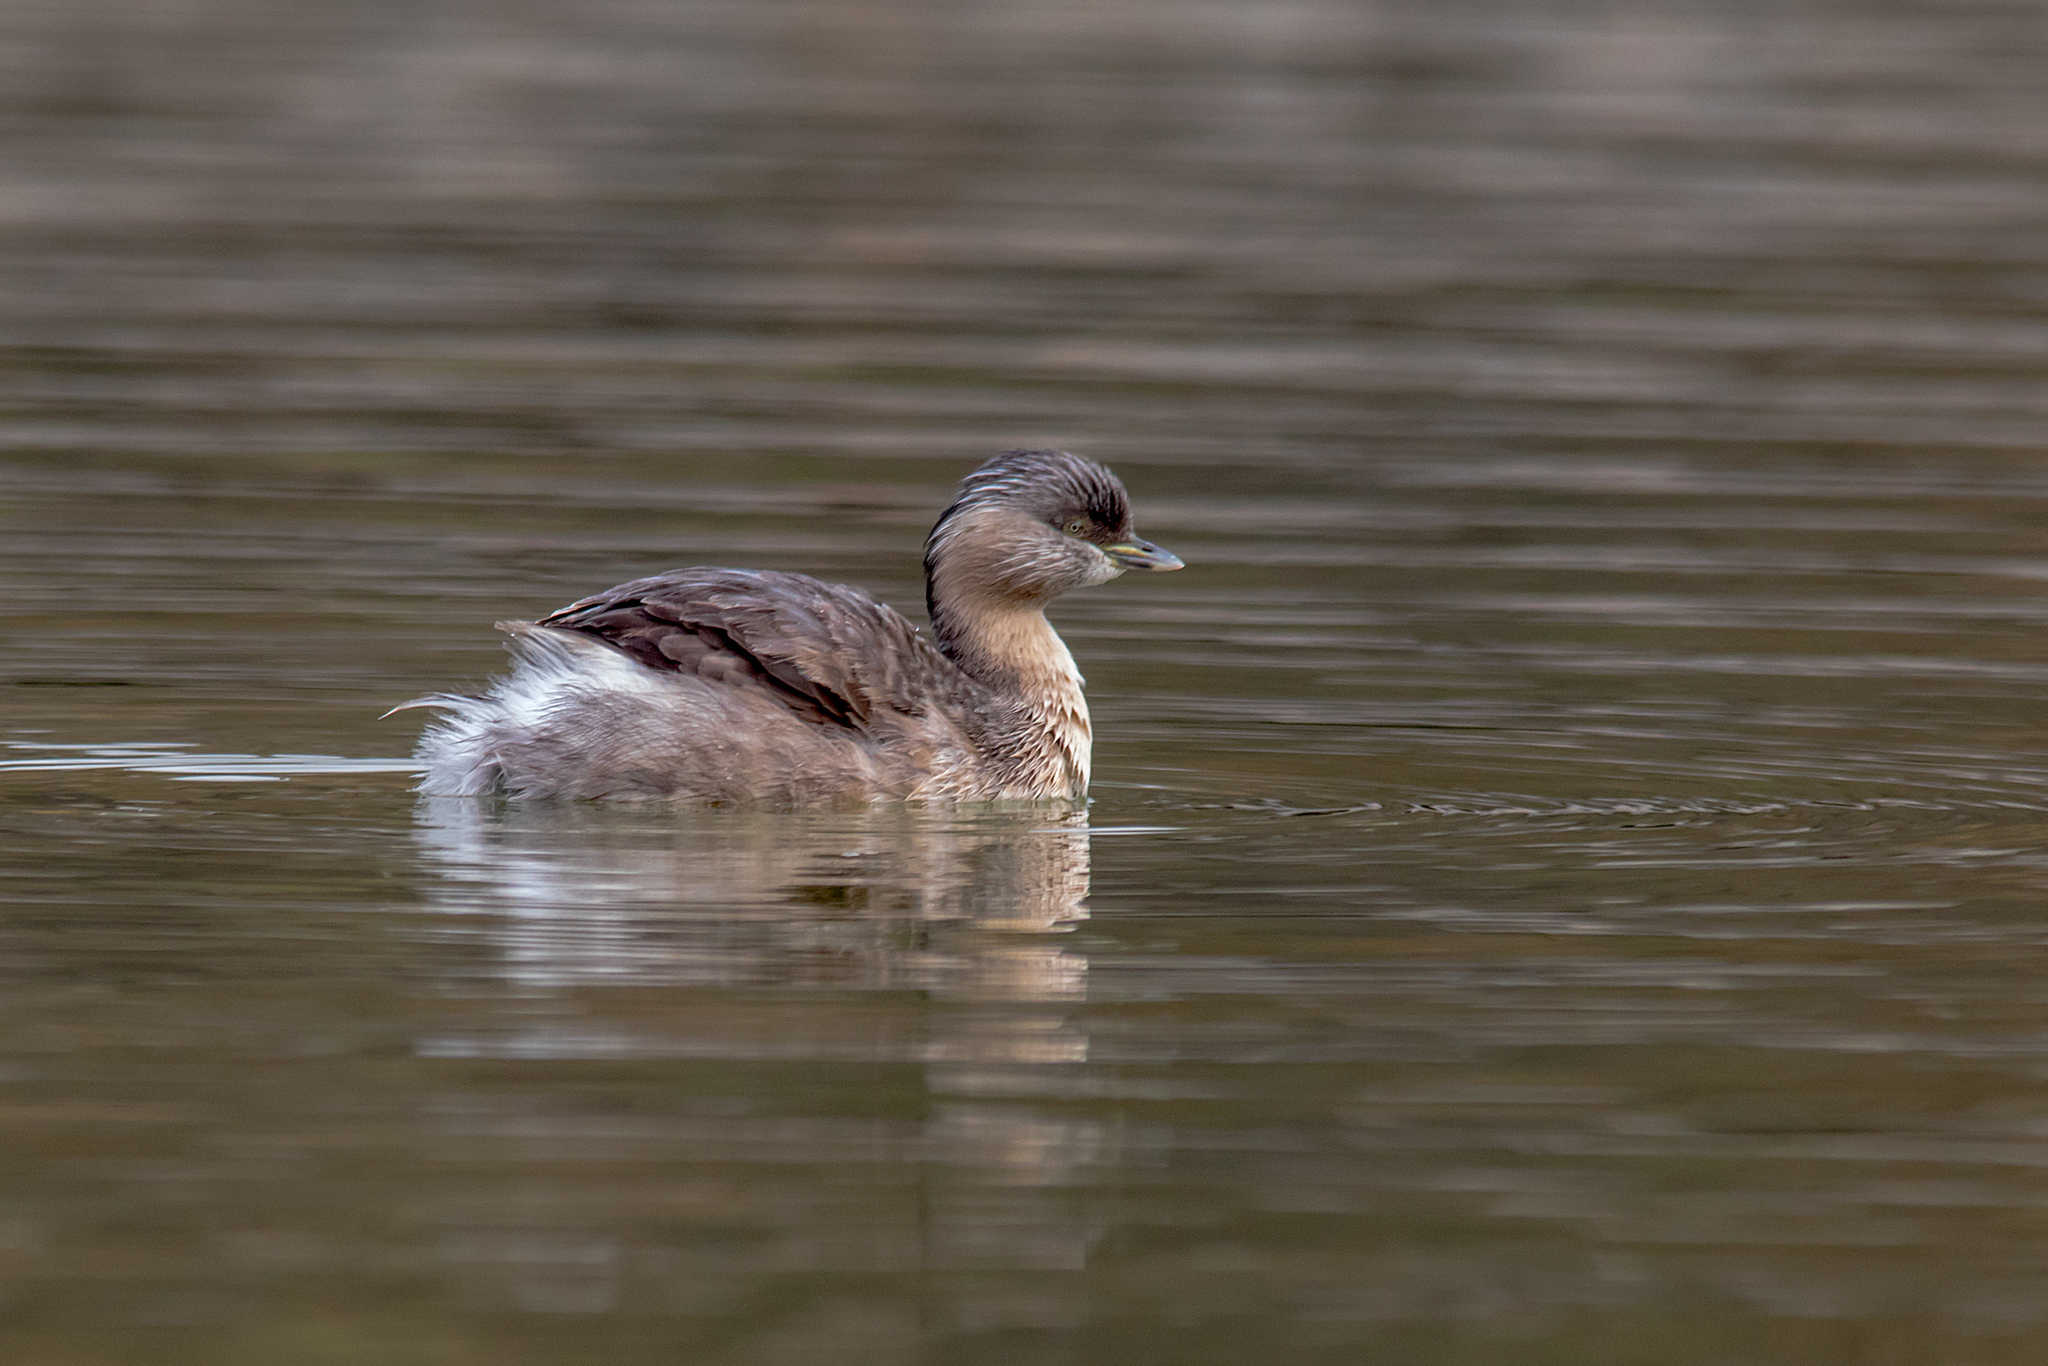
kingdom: Animalia
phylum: Chordata
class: Aves
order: Podicipediformes
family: Podicipedidae
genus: Poliocephalus
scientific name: Poliocephalus poliocephalus
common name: Hoary-headed grebe
